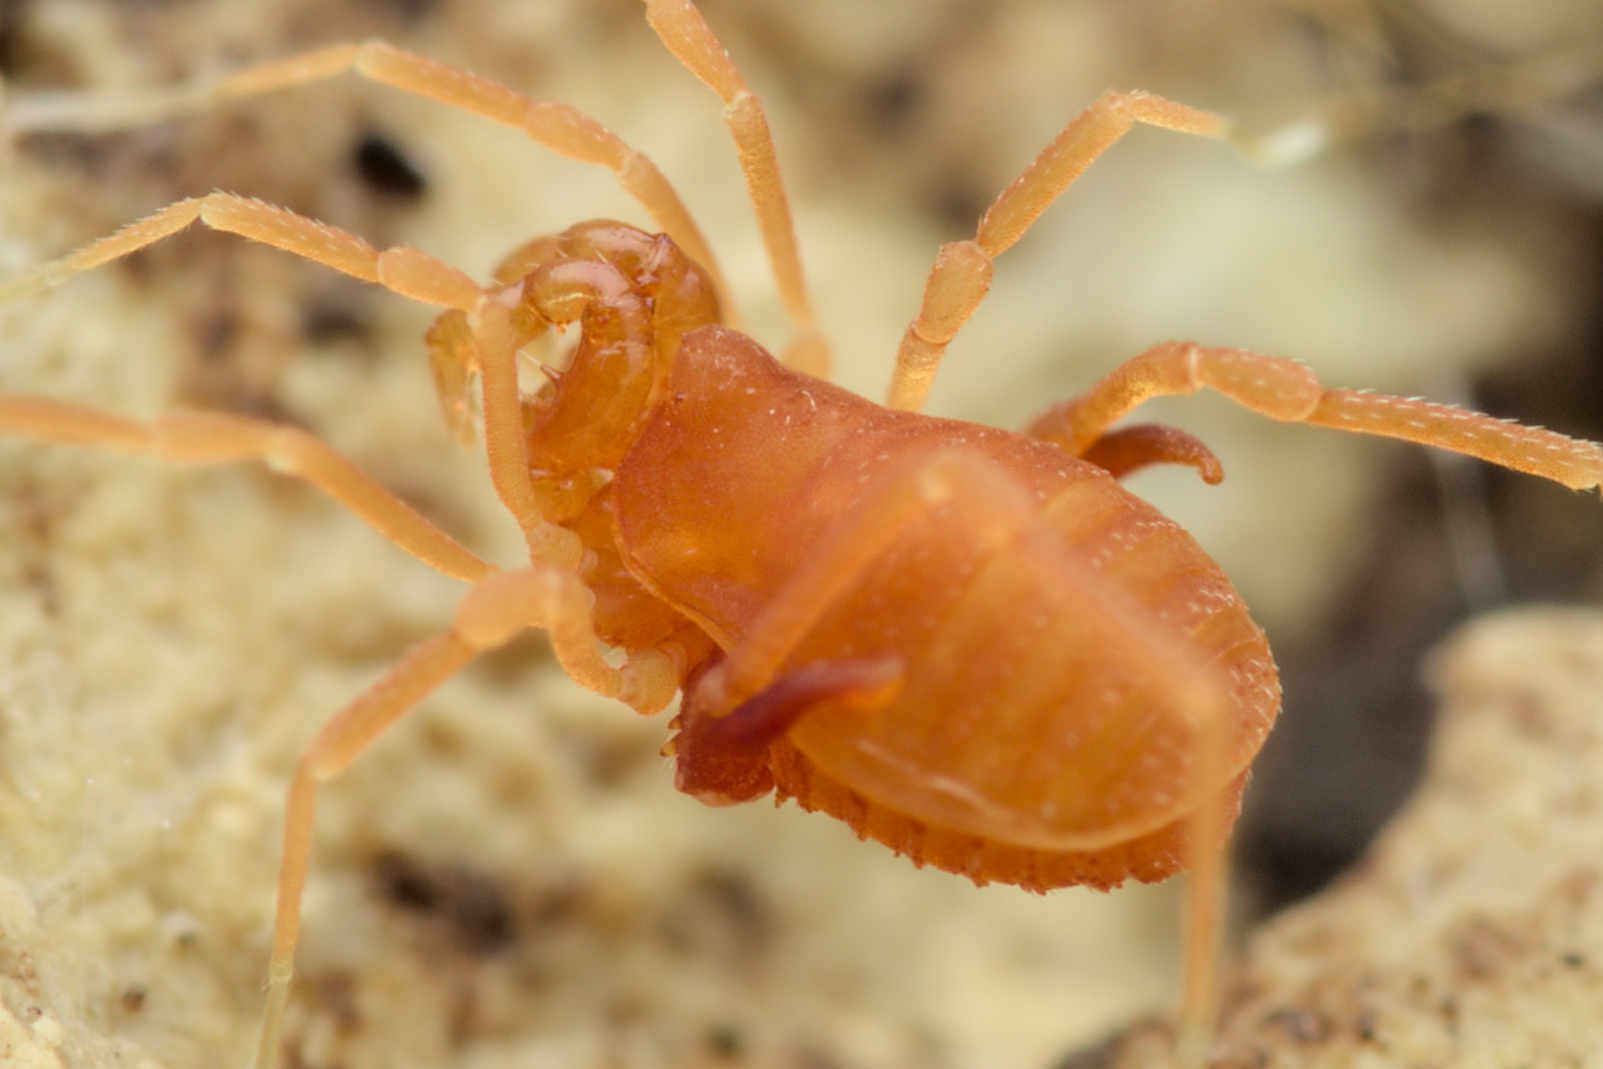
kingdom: Animalia
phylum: Arthropoda
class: Arachnida
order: Opiliones
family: Phalangodidae
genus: Scotolemon
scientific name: Scotolemon doriae
